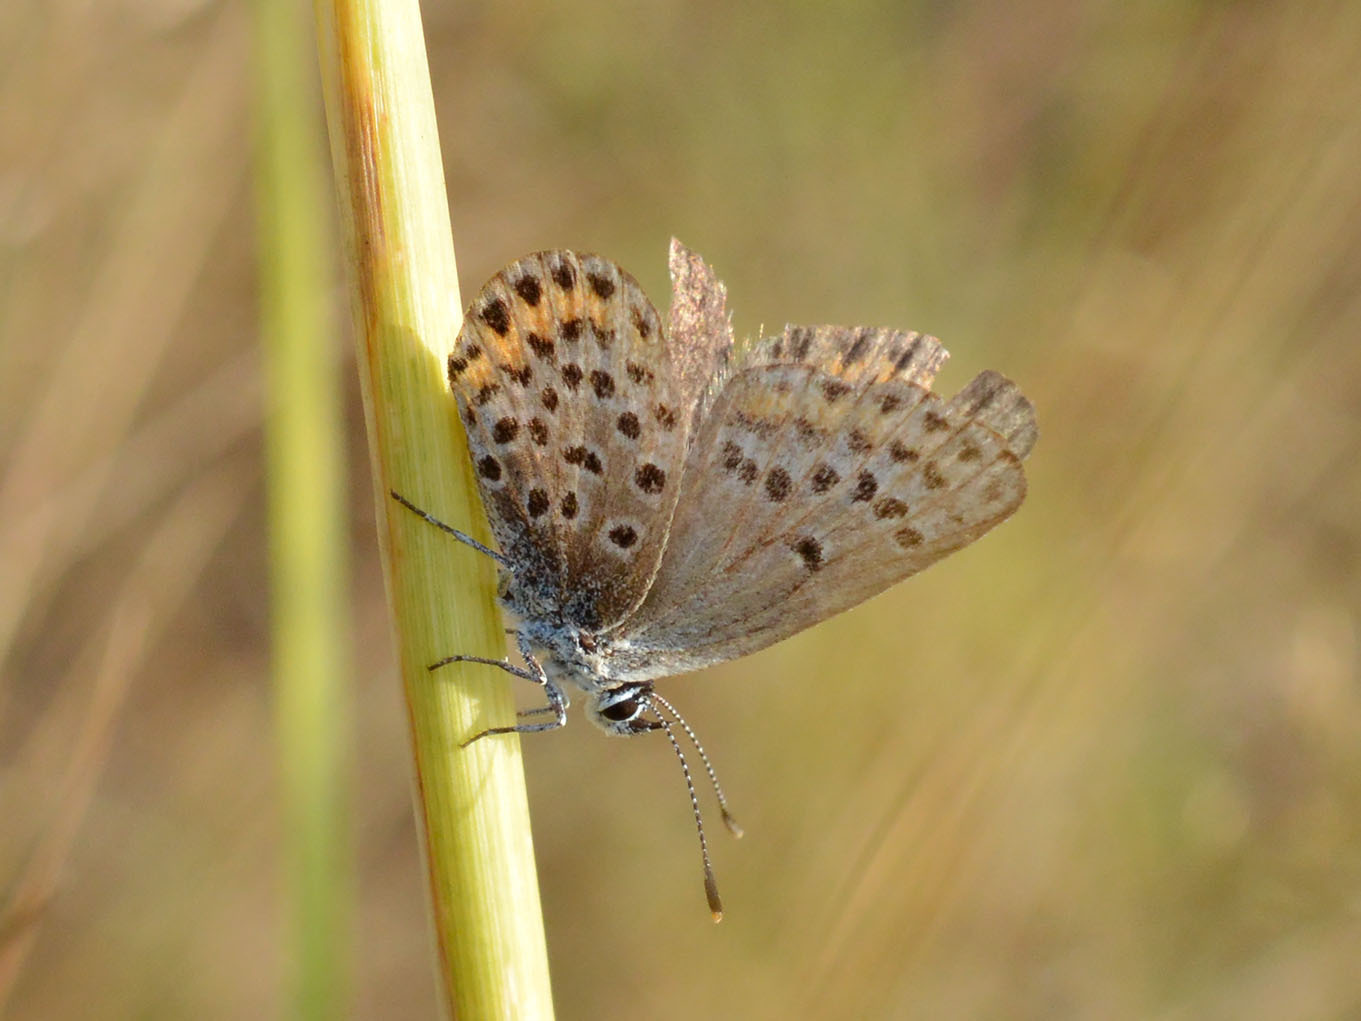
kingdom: Animalia
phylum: Arthropoda
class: Insecta
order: Lepidoptera
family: Lycaenidae
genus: Plebejus
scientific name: Plebejus argus
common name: Silver-studded blue
